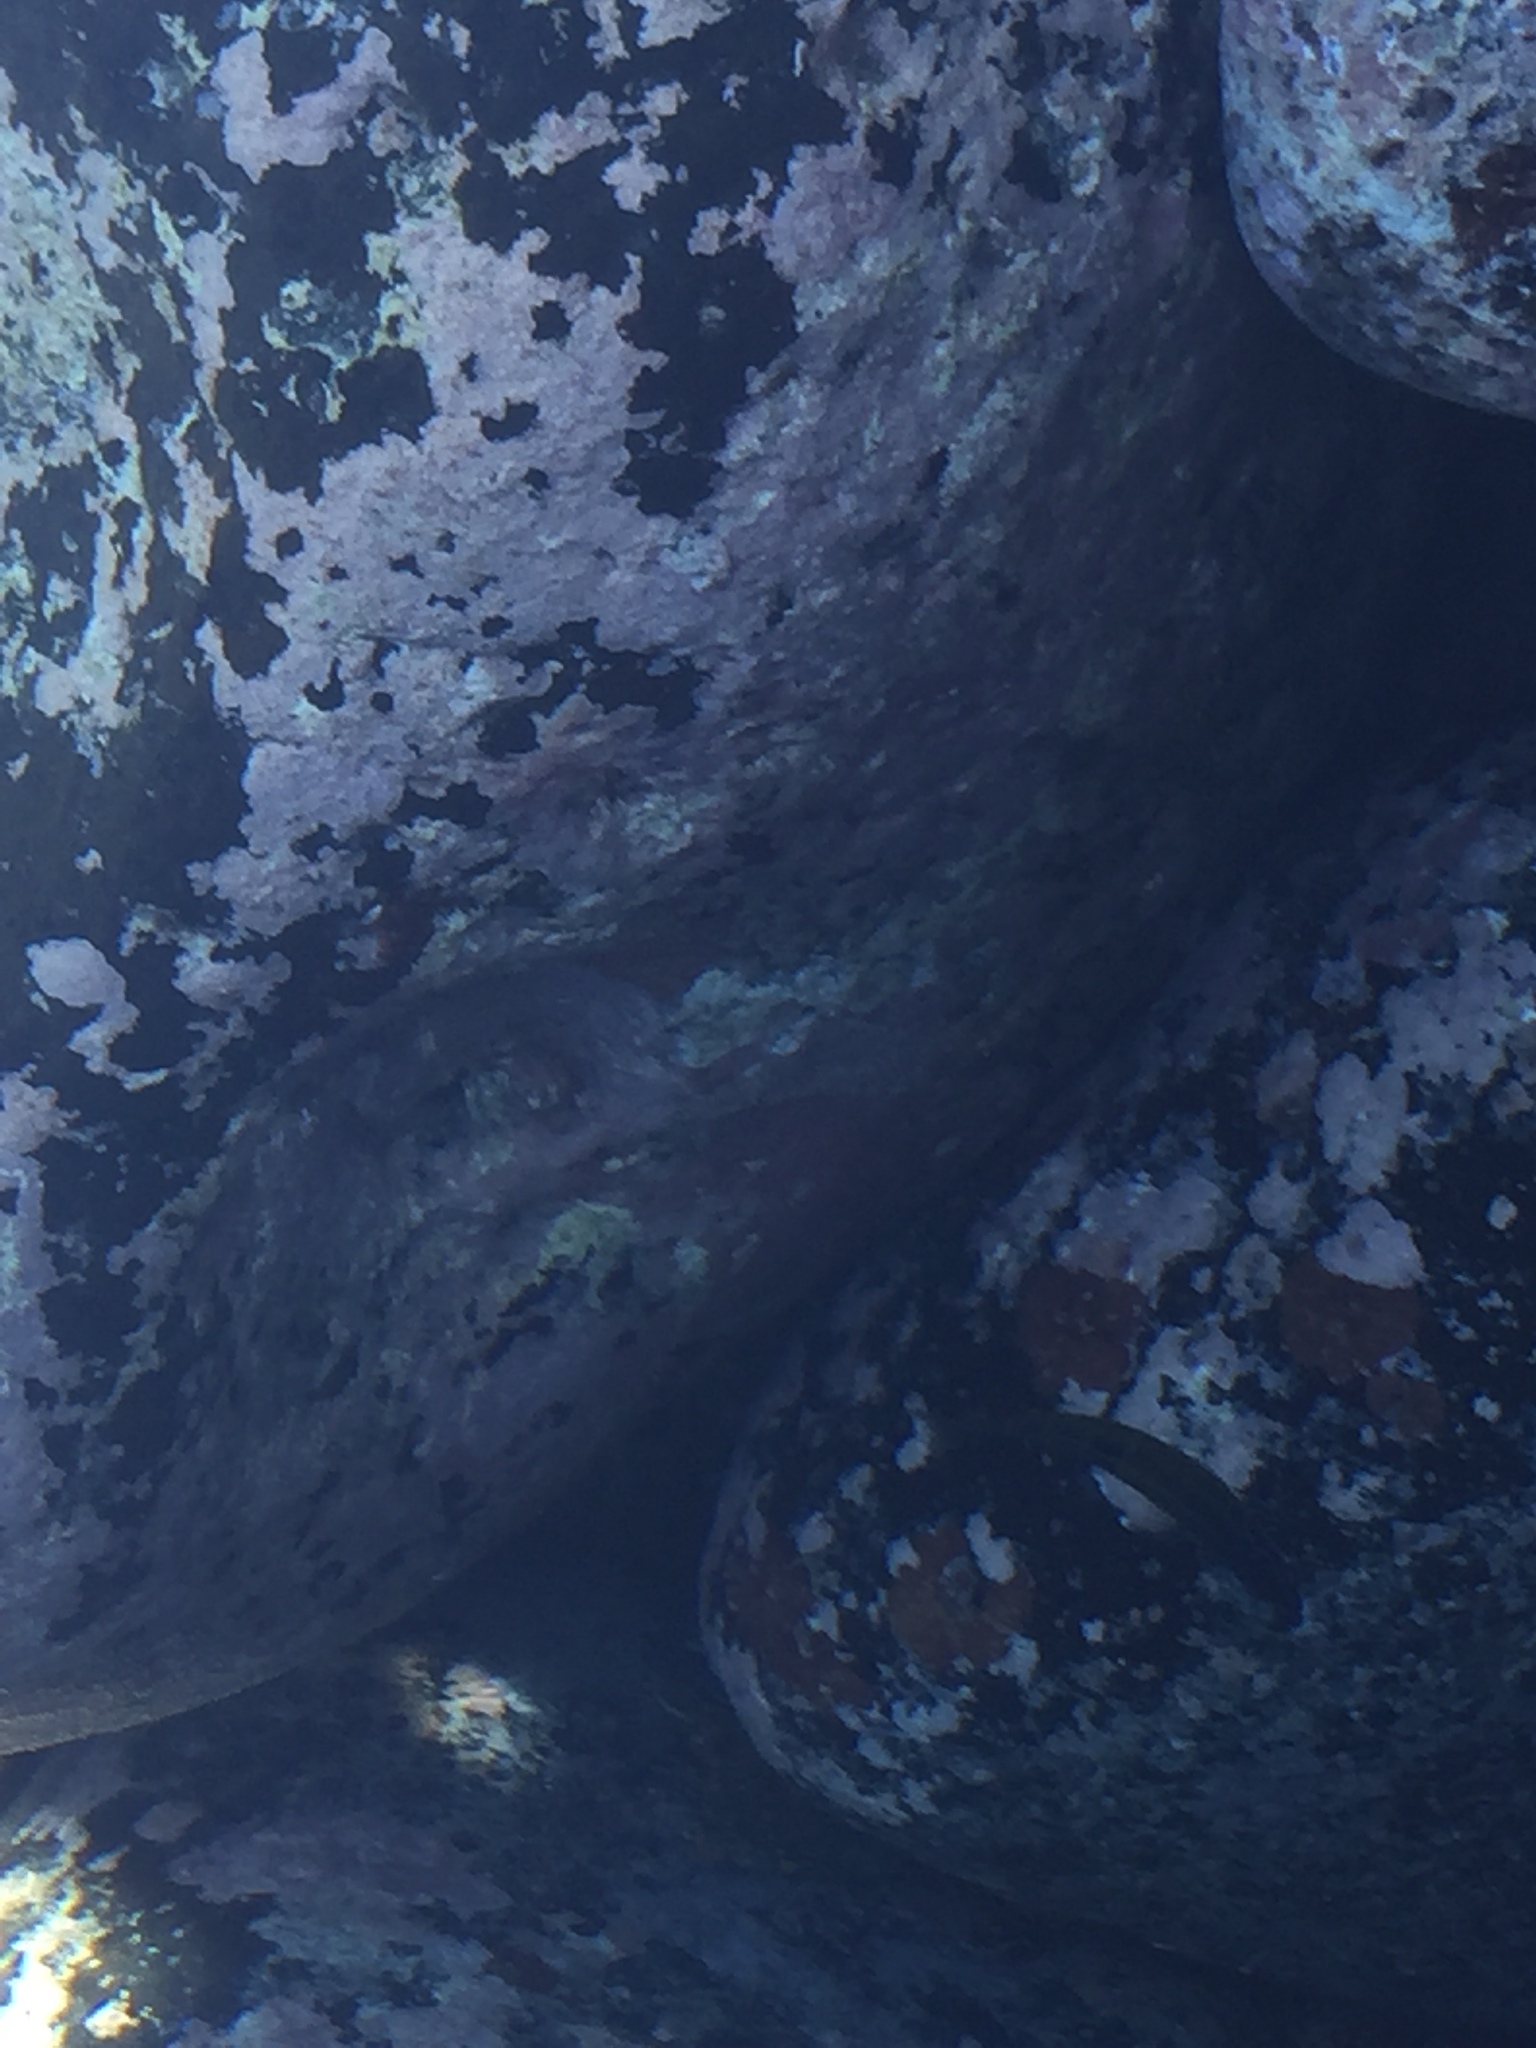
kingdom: Animalia
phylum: Chordata
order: Perciformes
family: Labridae
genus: Thalassoma
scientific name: Thalassoma pavo
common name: Ornate wrasse
